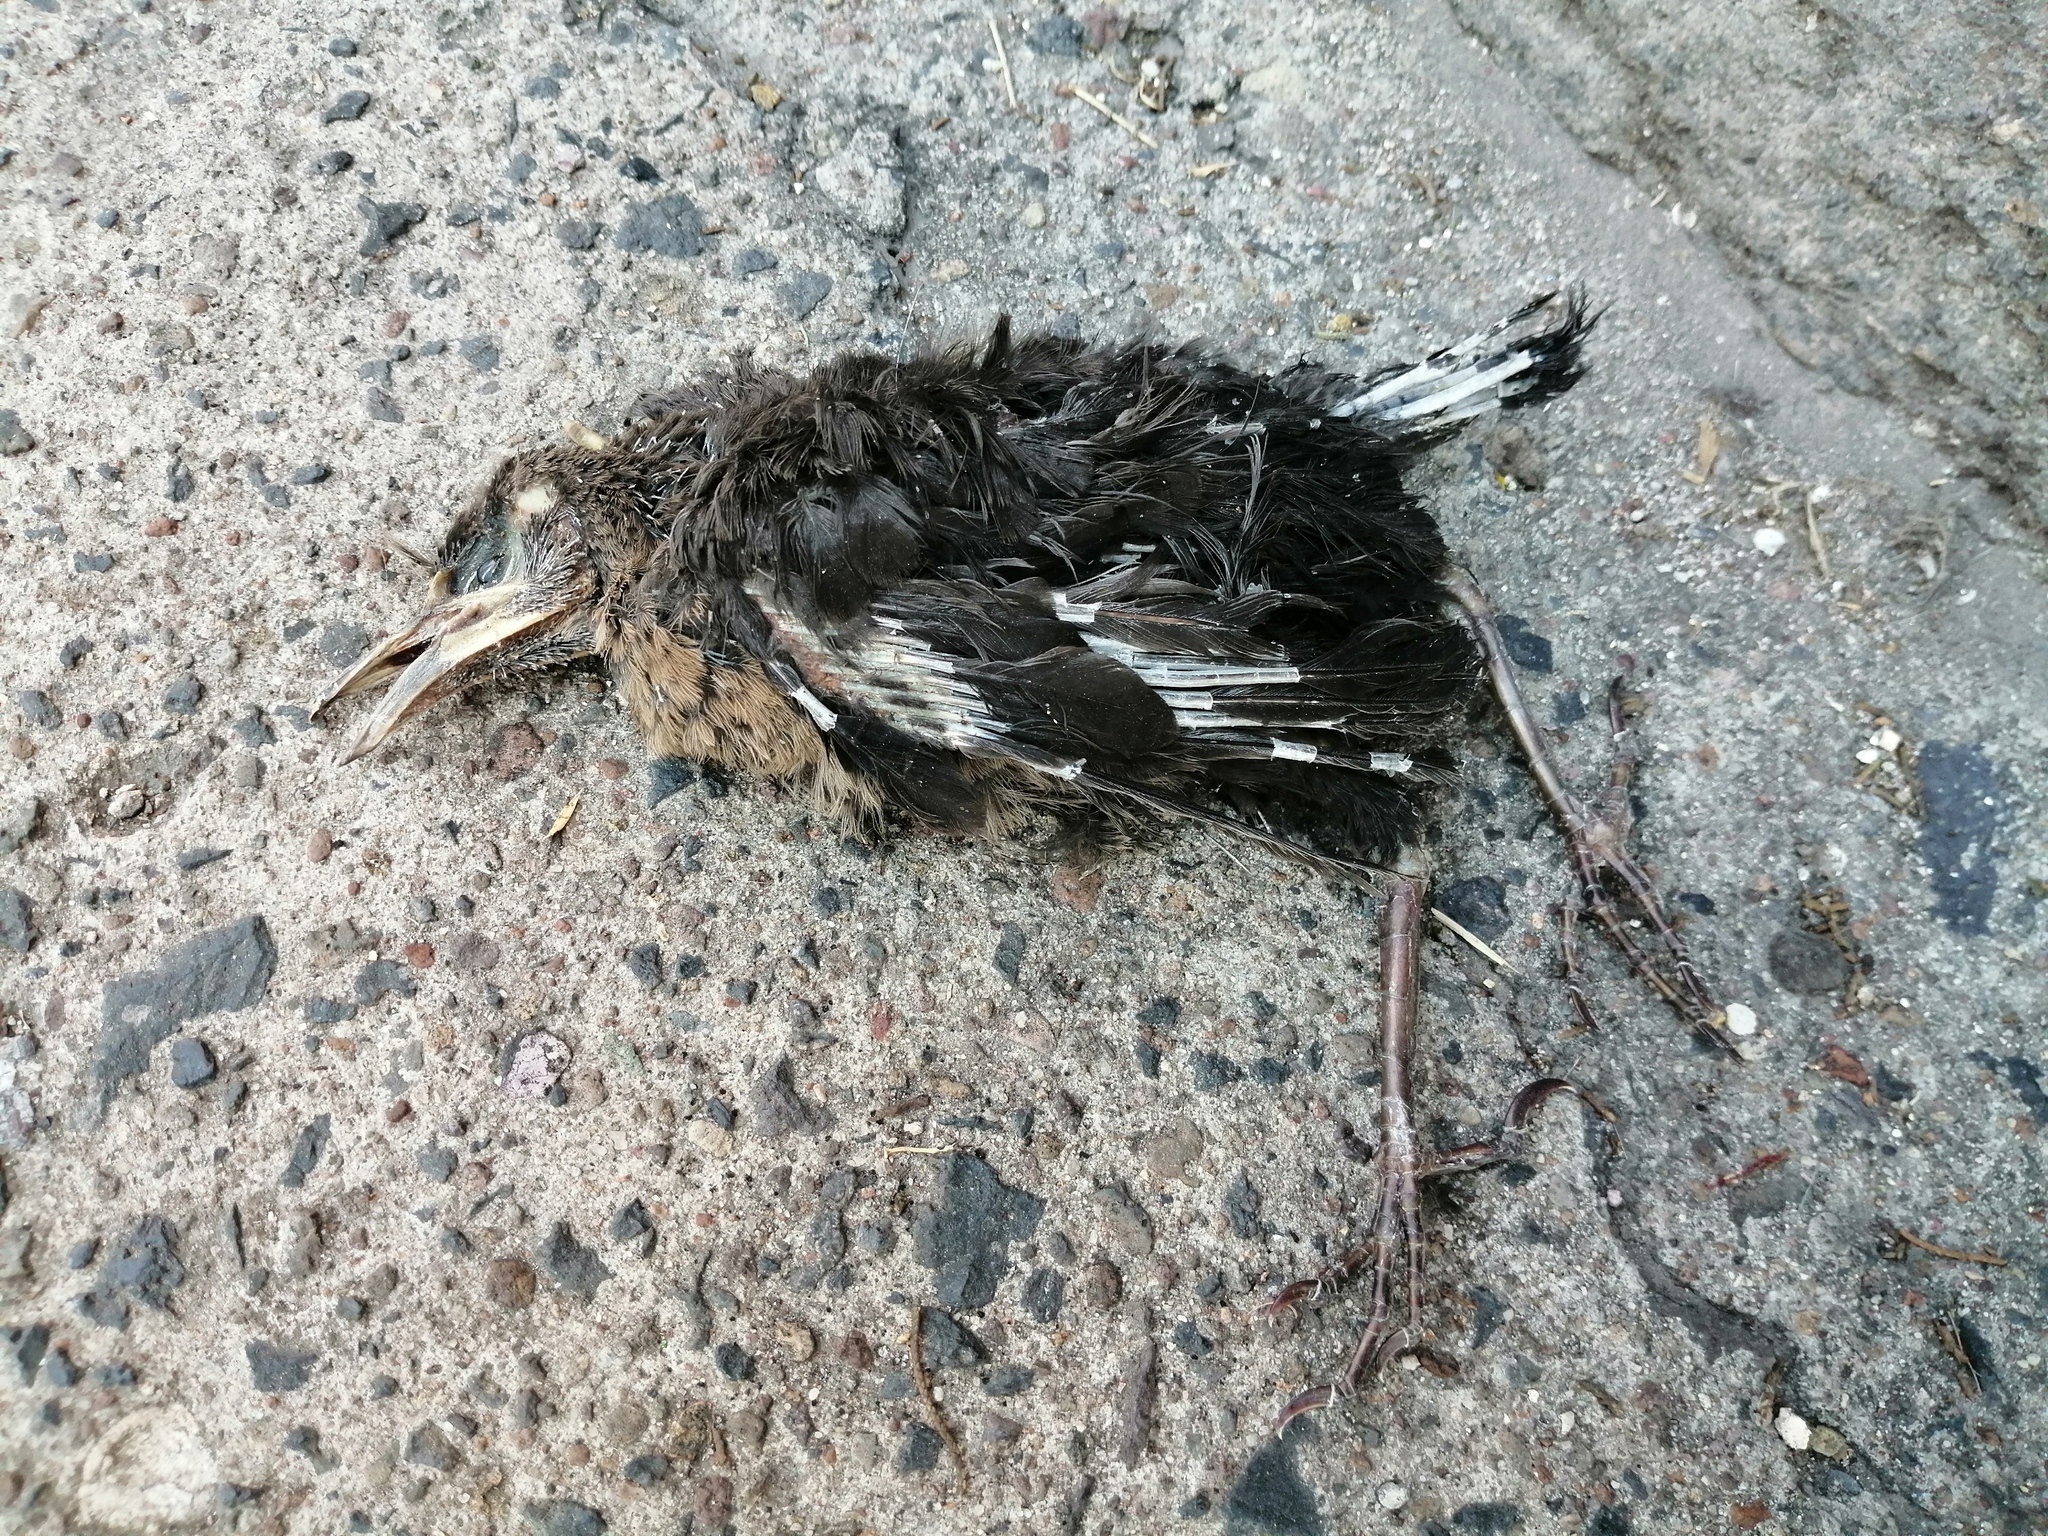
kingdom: Animalia
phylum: Chordata
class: Aves
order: Passeriformes
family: Icteridae
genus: Quiscalus
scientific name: Quiscalus mexicanus
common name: Great-tailed grackle
